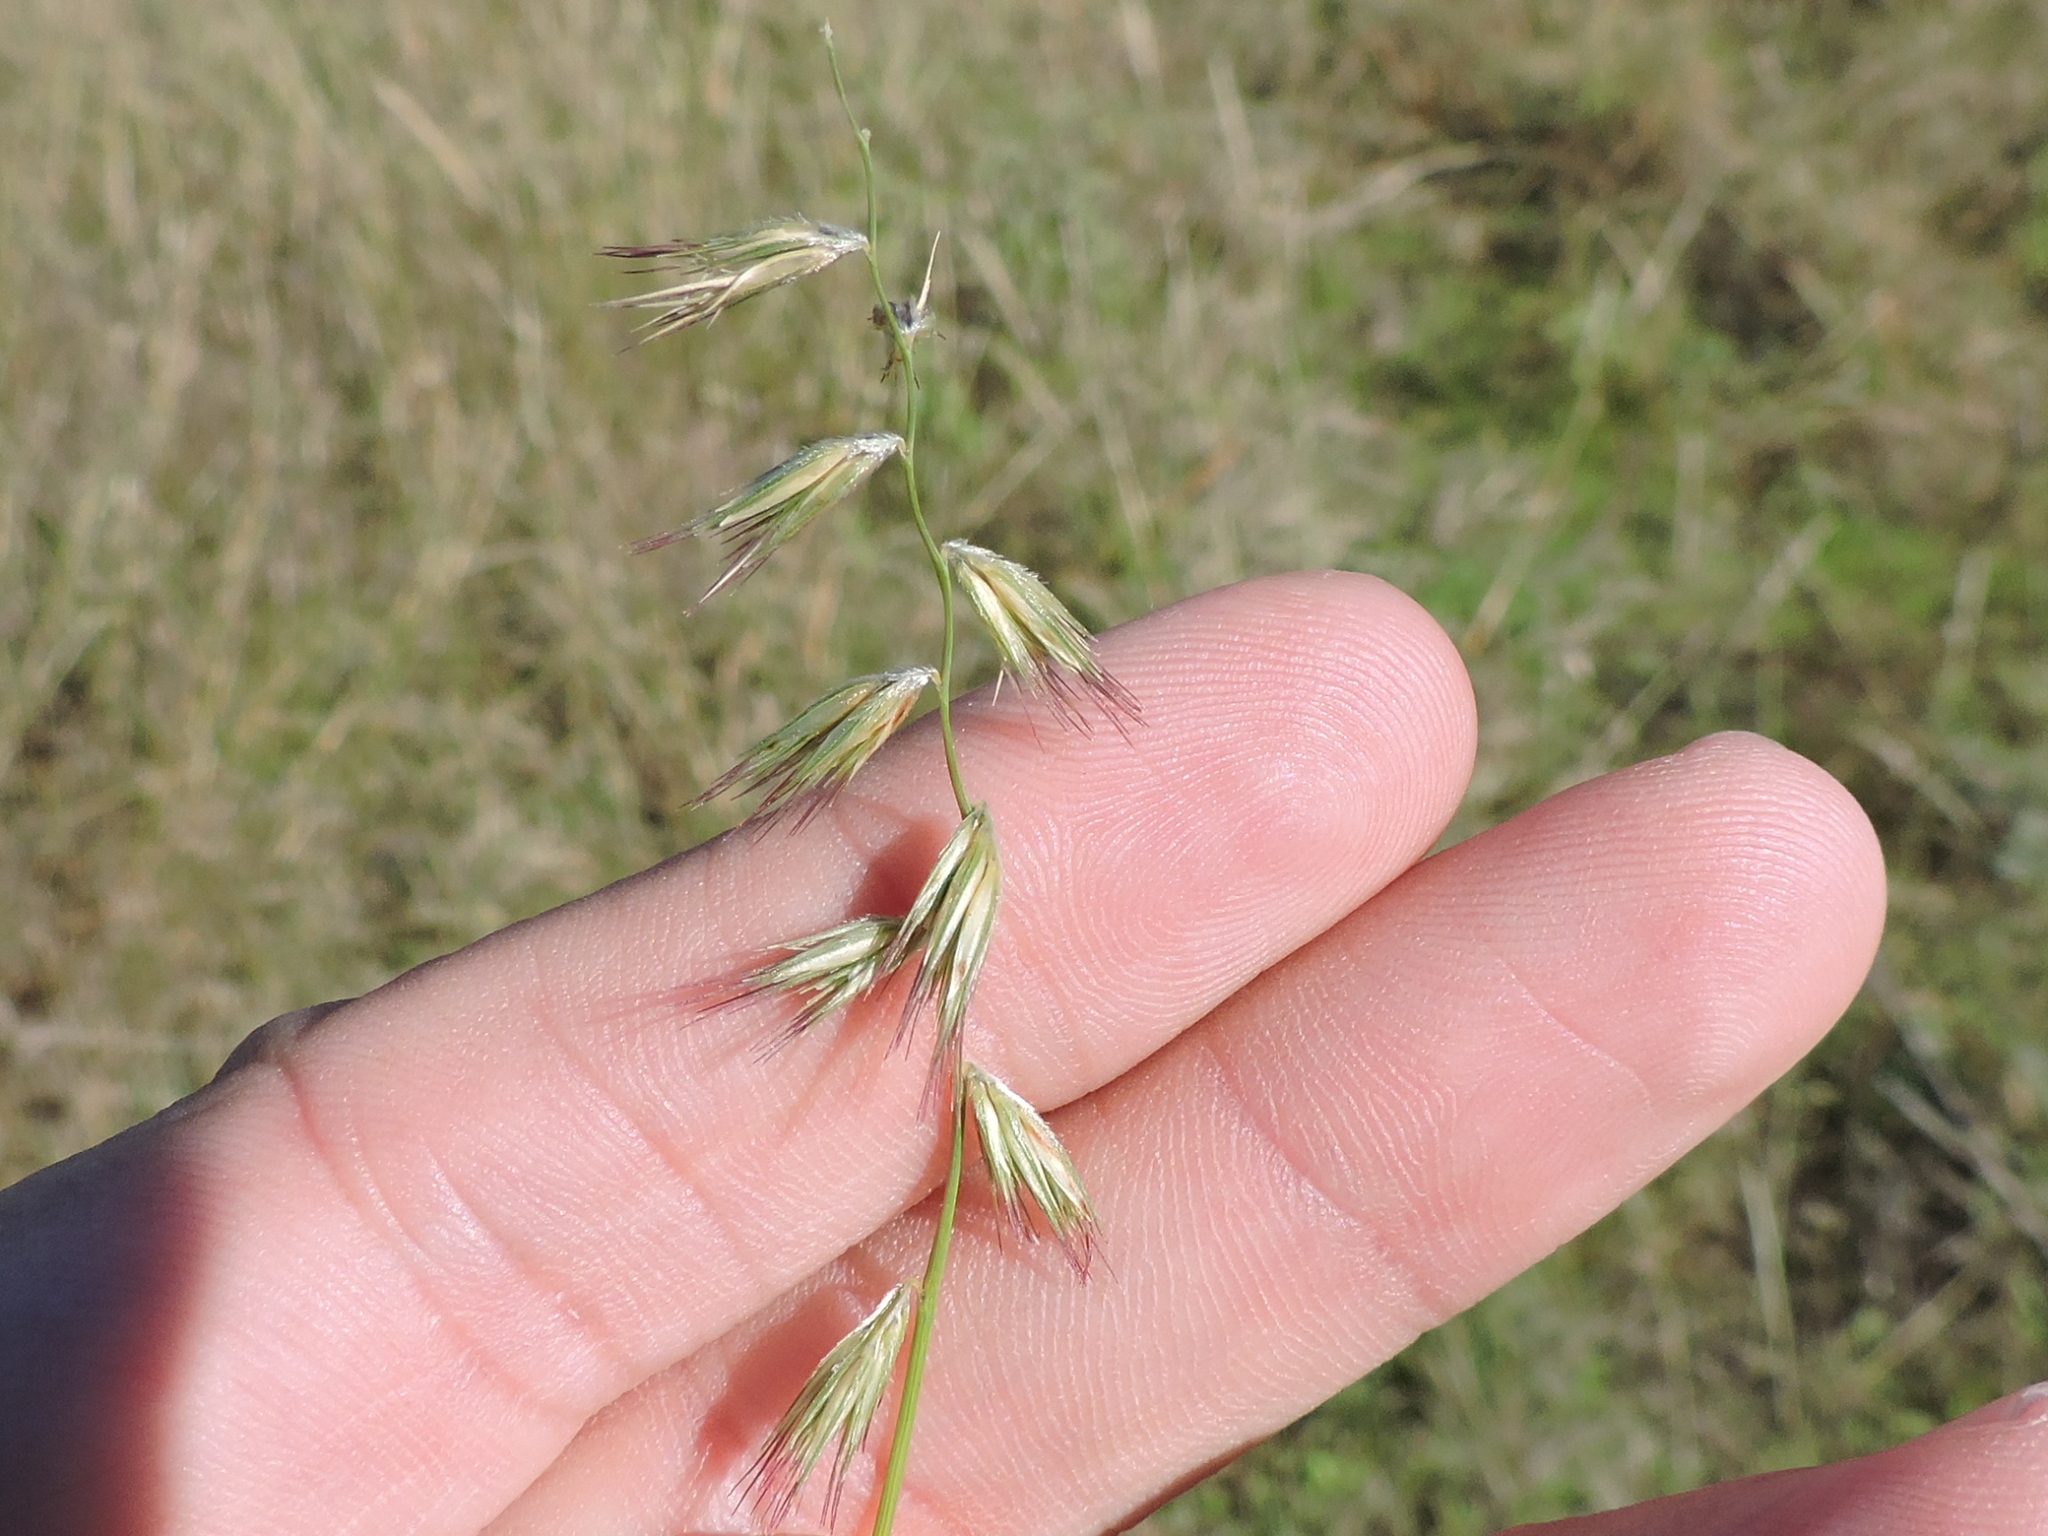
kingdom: Plantae
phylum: Tracheophyta
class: Liliopsida
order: Poales
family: Poaceae
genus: Bouteloua
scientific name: Bouteloua rigidiseta
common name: Texas grama
